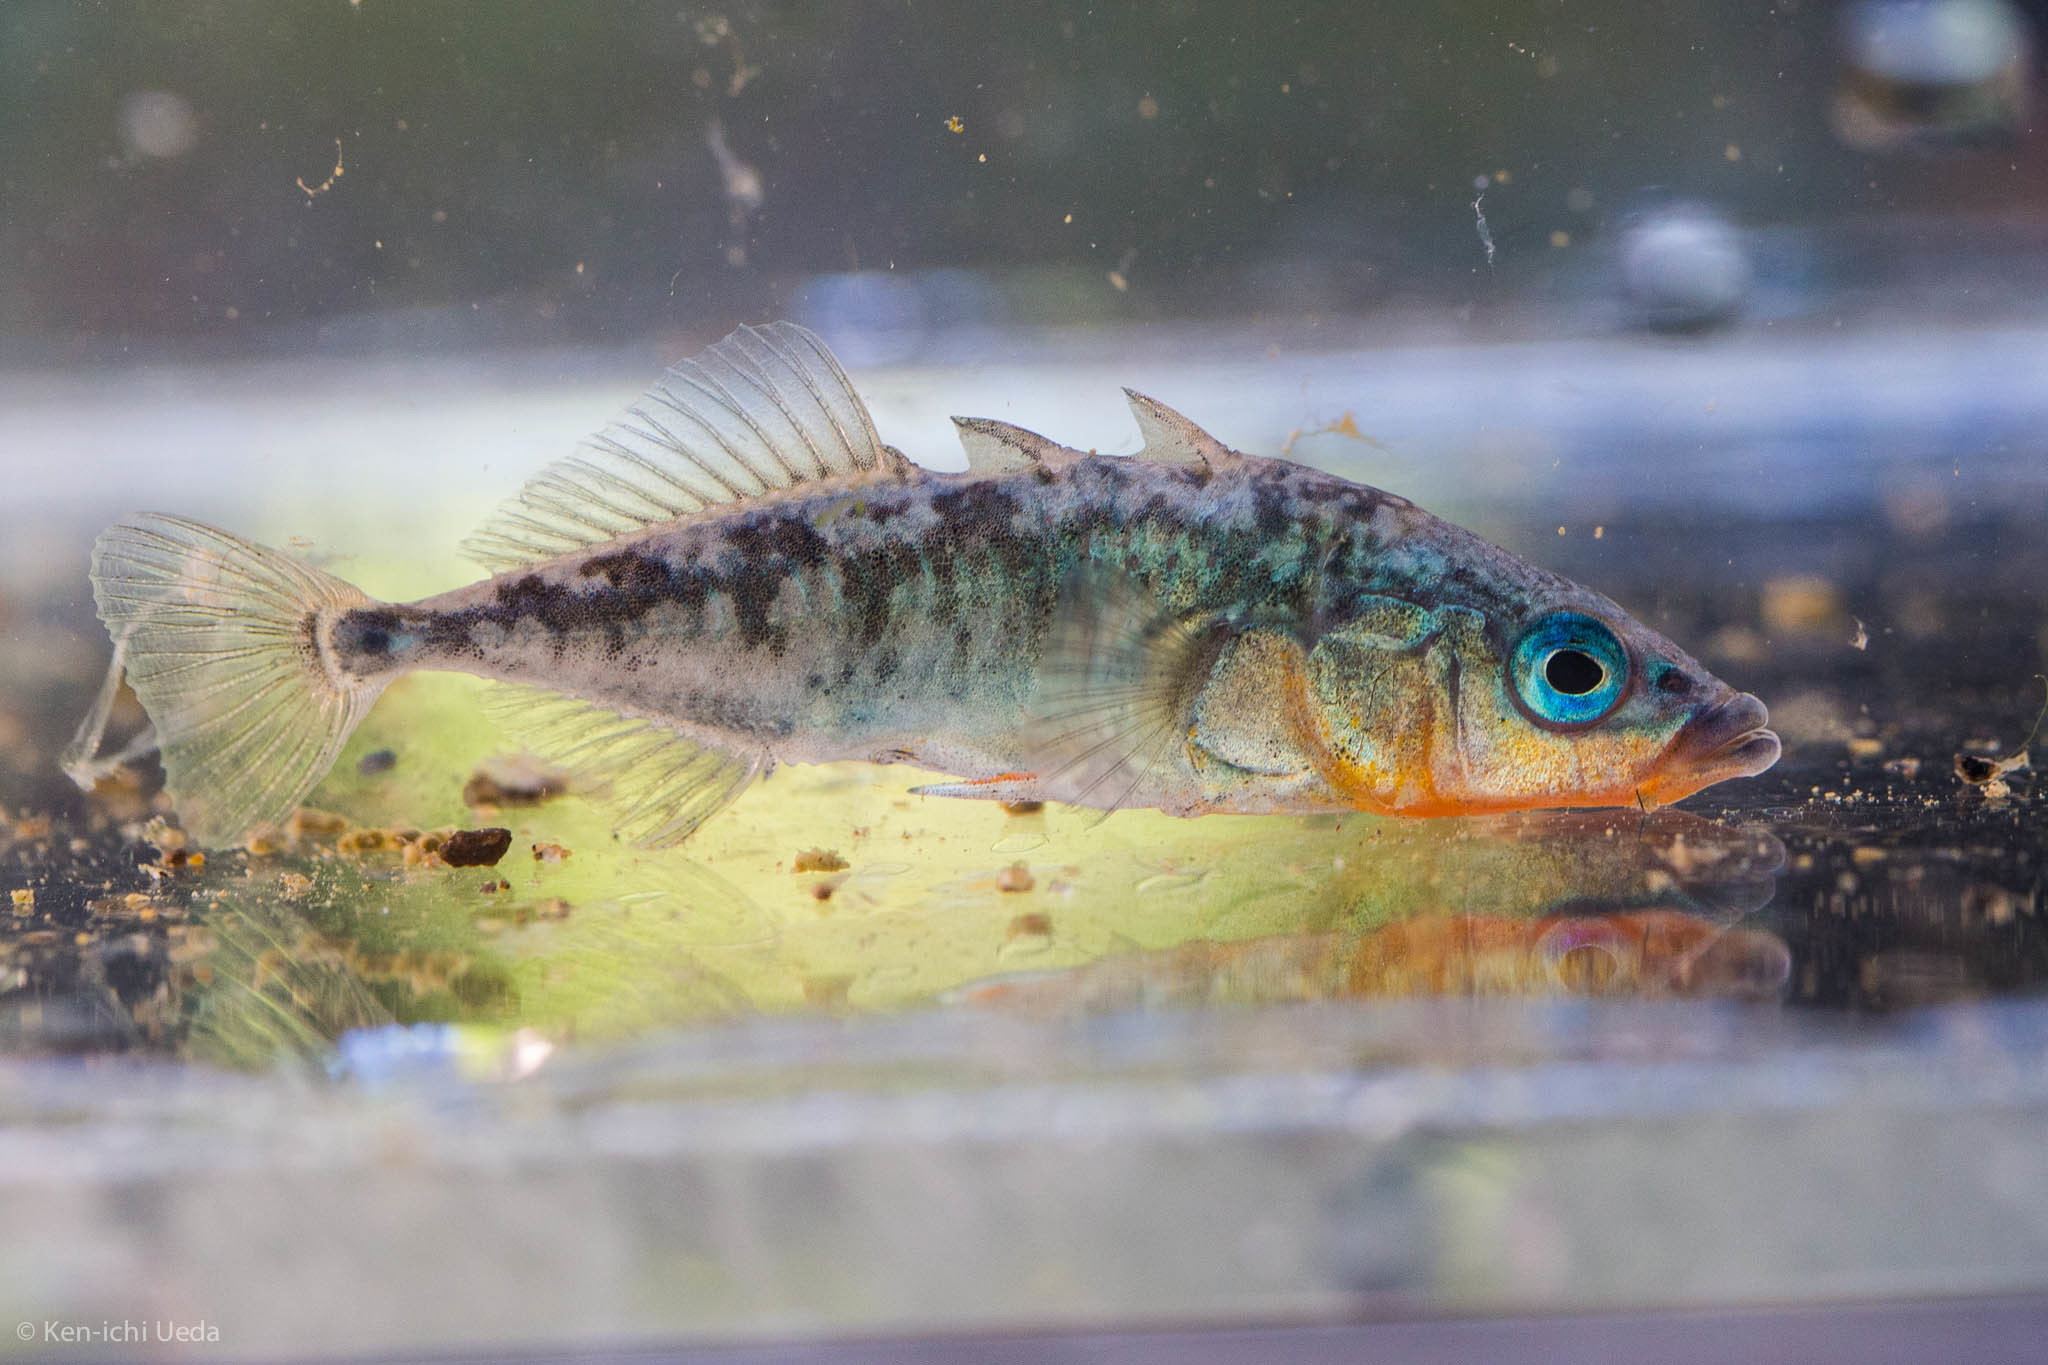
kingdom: Animalia
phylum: Chordata
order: Gasterosteiformes
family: Gasterosteidae
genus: Gasterosteus
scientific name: Gasterosteus aculeatus
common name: Three-spined stickleback
